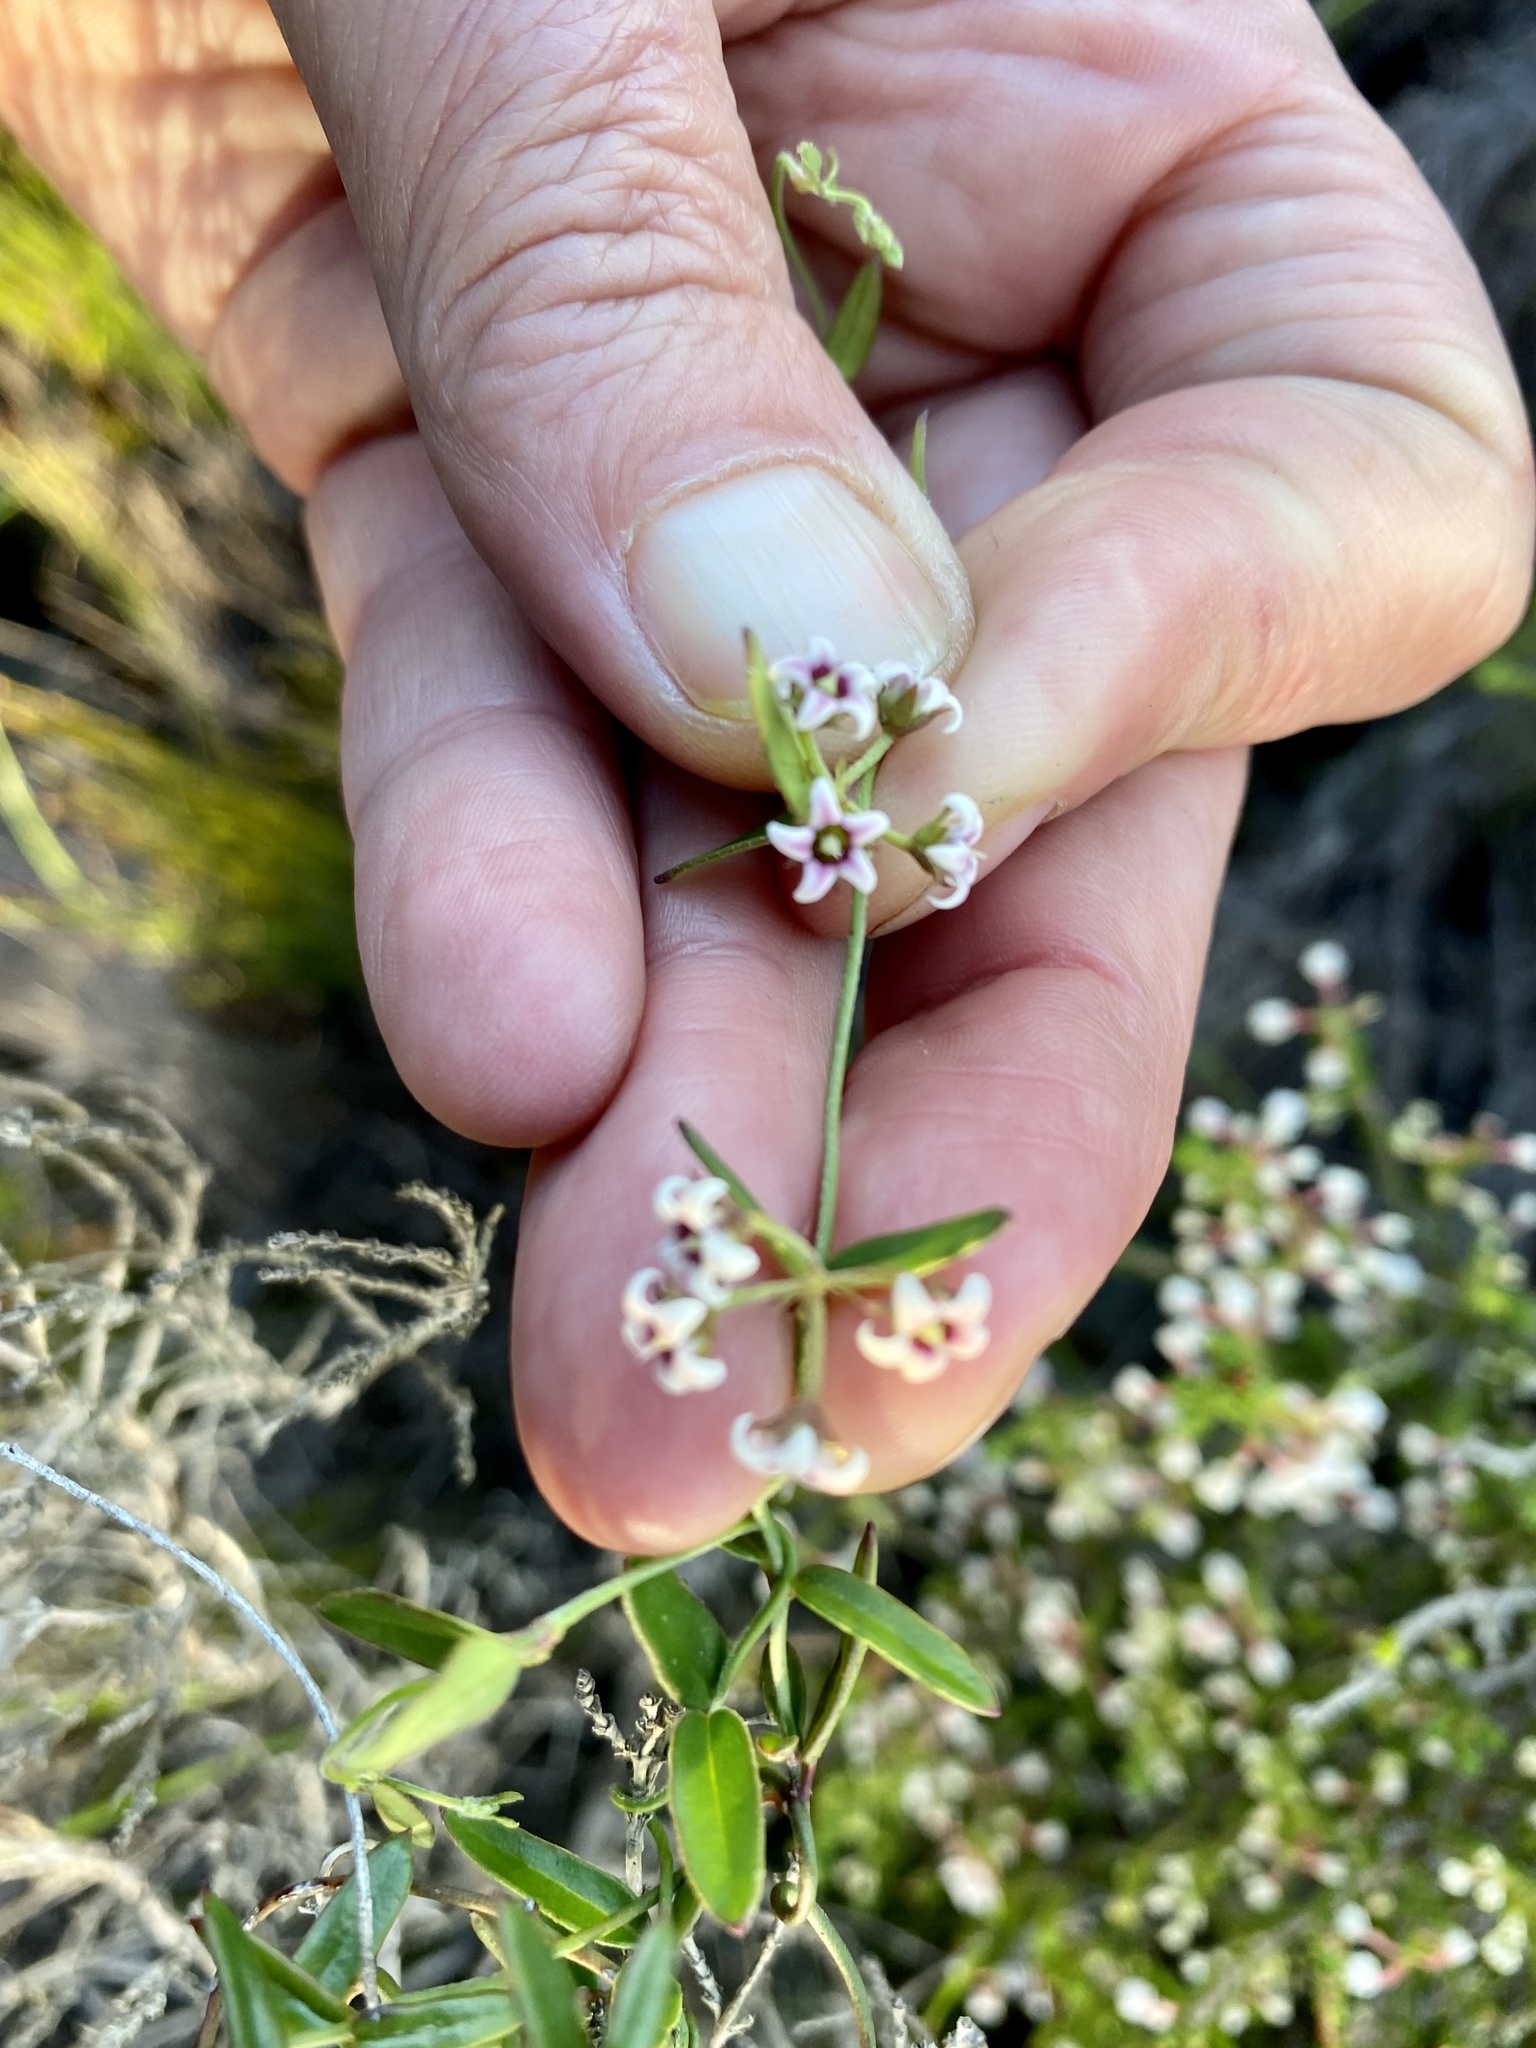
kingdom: Plantae
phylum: Tracheophyta
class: Magnoliopsida
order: Gentianales
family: Apocynaceae
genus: Astephanus
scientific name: Astephanus triflorus
